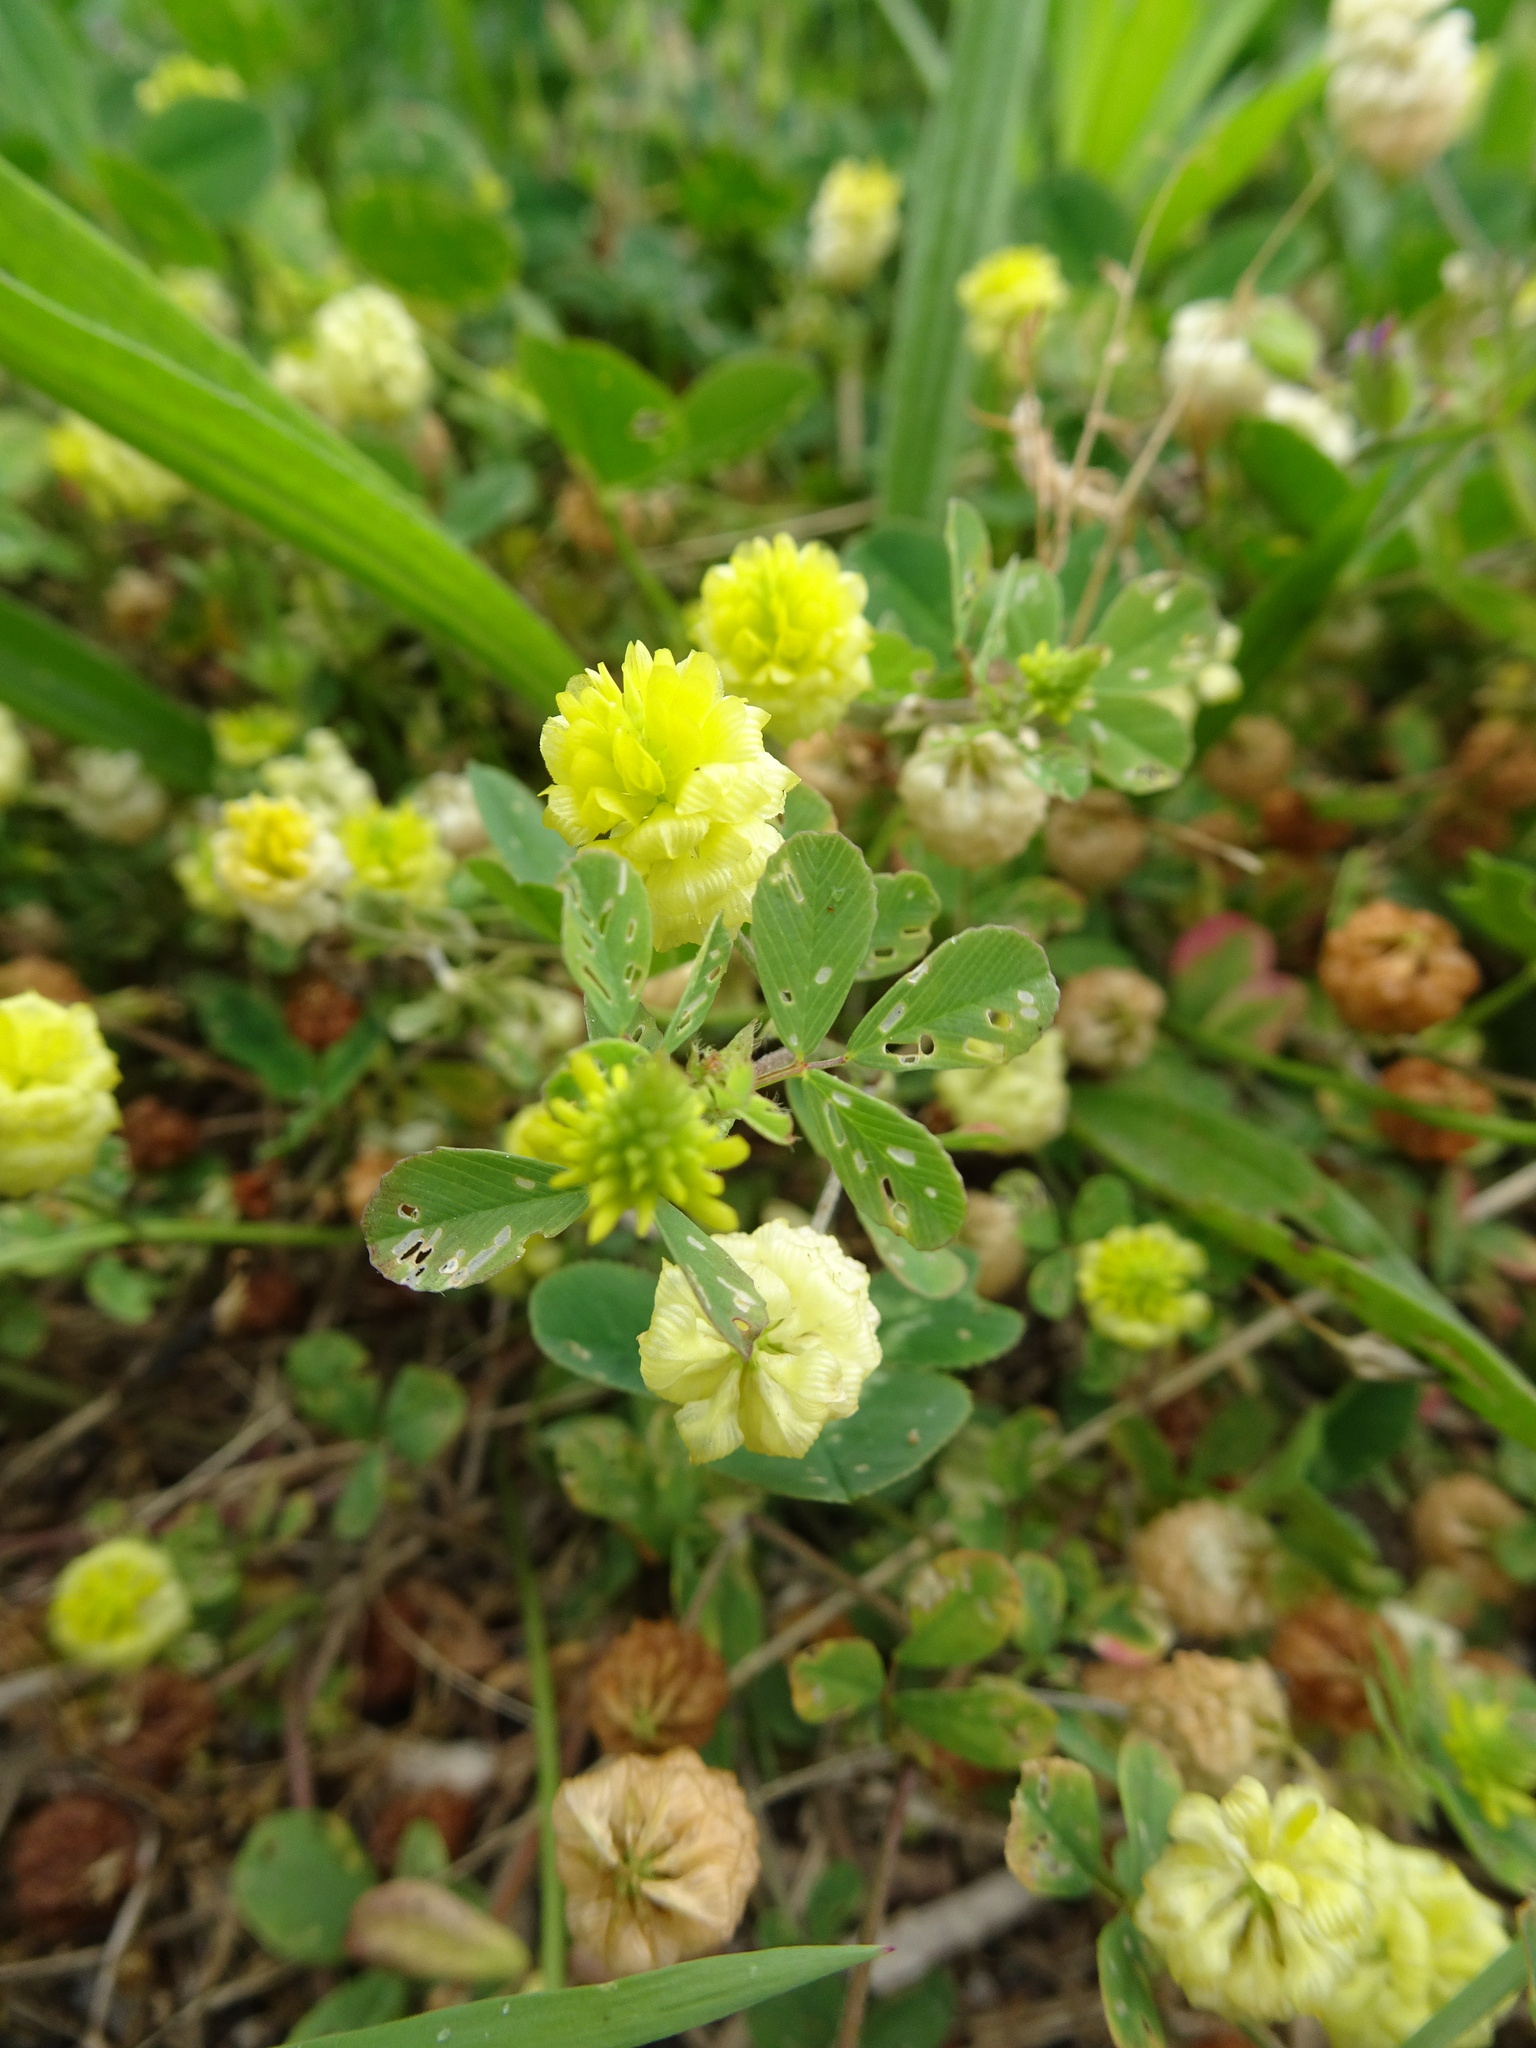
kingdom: Plantae
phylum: Tracheophyta
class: Magnoliopsida
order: Fabales
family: Fabaceae
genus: Trifolium
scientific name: Trifolium campestre
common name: Field clover
